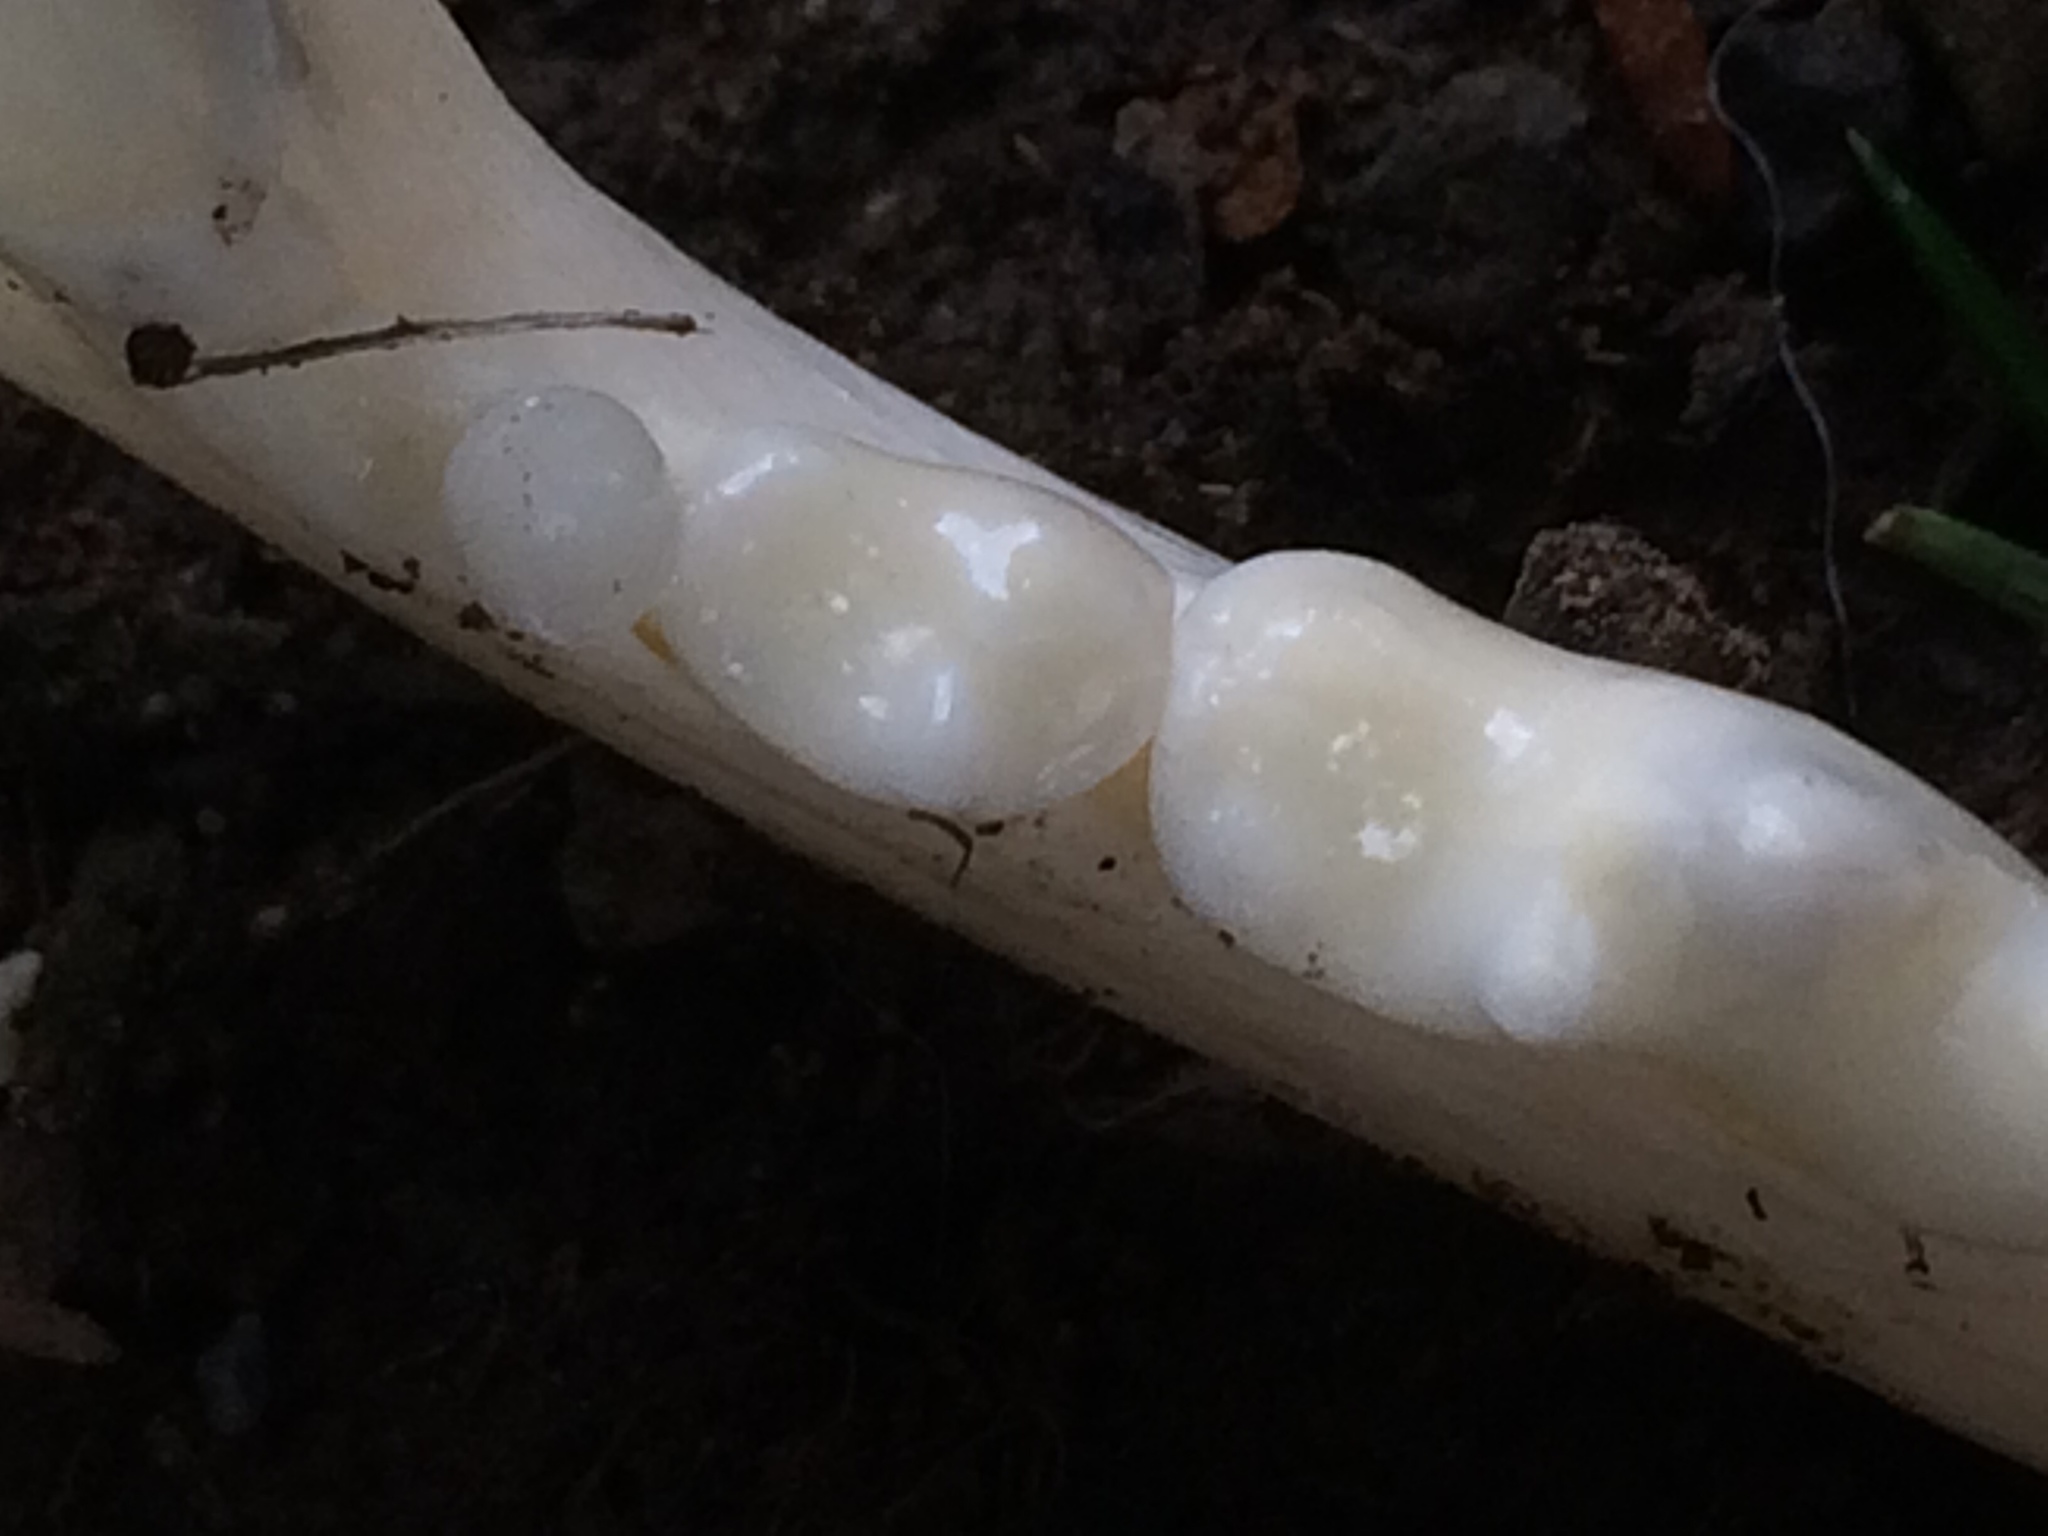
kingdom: Animalia
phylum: Chordata
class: Mammalia
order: Carnivora
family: Canidae
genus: Vulpes
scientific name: Vulpes vulpes
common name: Red fox
